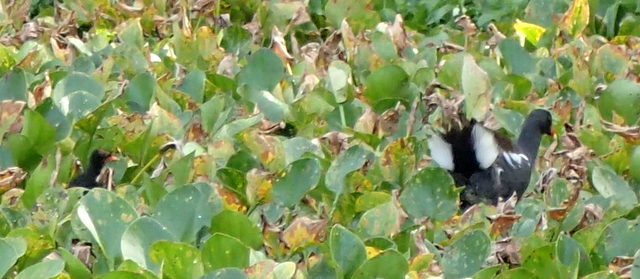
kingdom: Animalia
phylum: Chordata
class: Aves
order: Gruiformes
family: Rallidae
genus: Gallinula
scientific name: Gallinula chloropus
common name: Common moorhen
